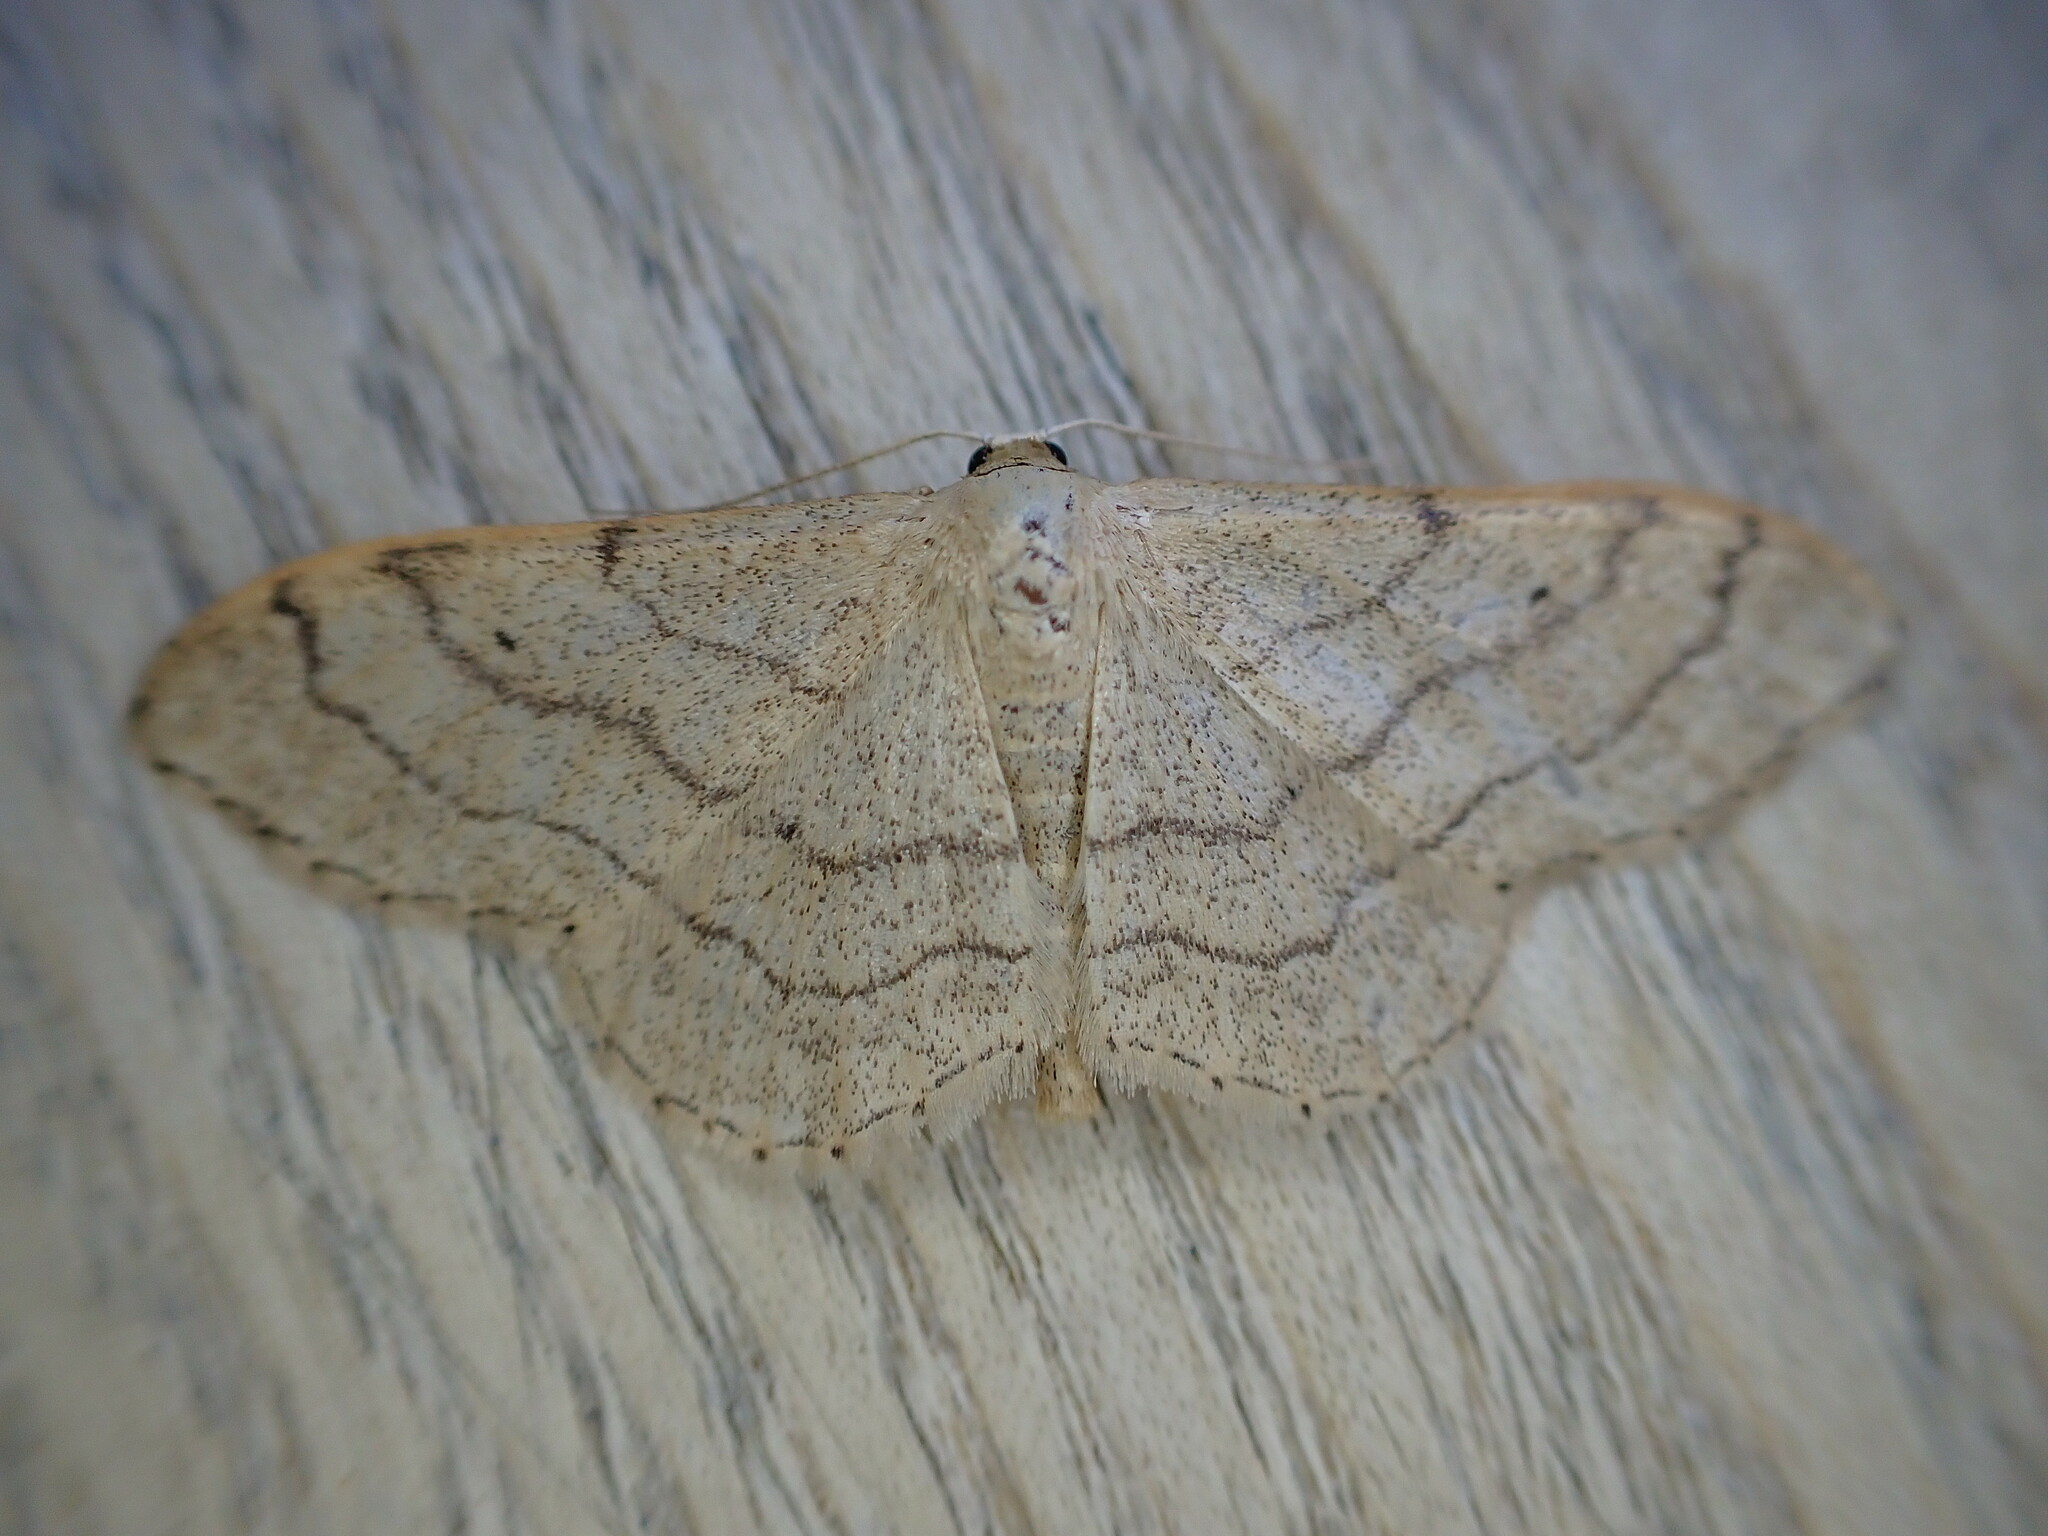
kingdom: Animalia
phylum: Arthropoda
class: Insecta
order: Lepidoptera
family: Geometridae
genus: Idaea
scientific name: Idaea aversata
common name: Riband wave
